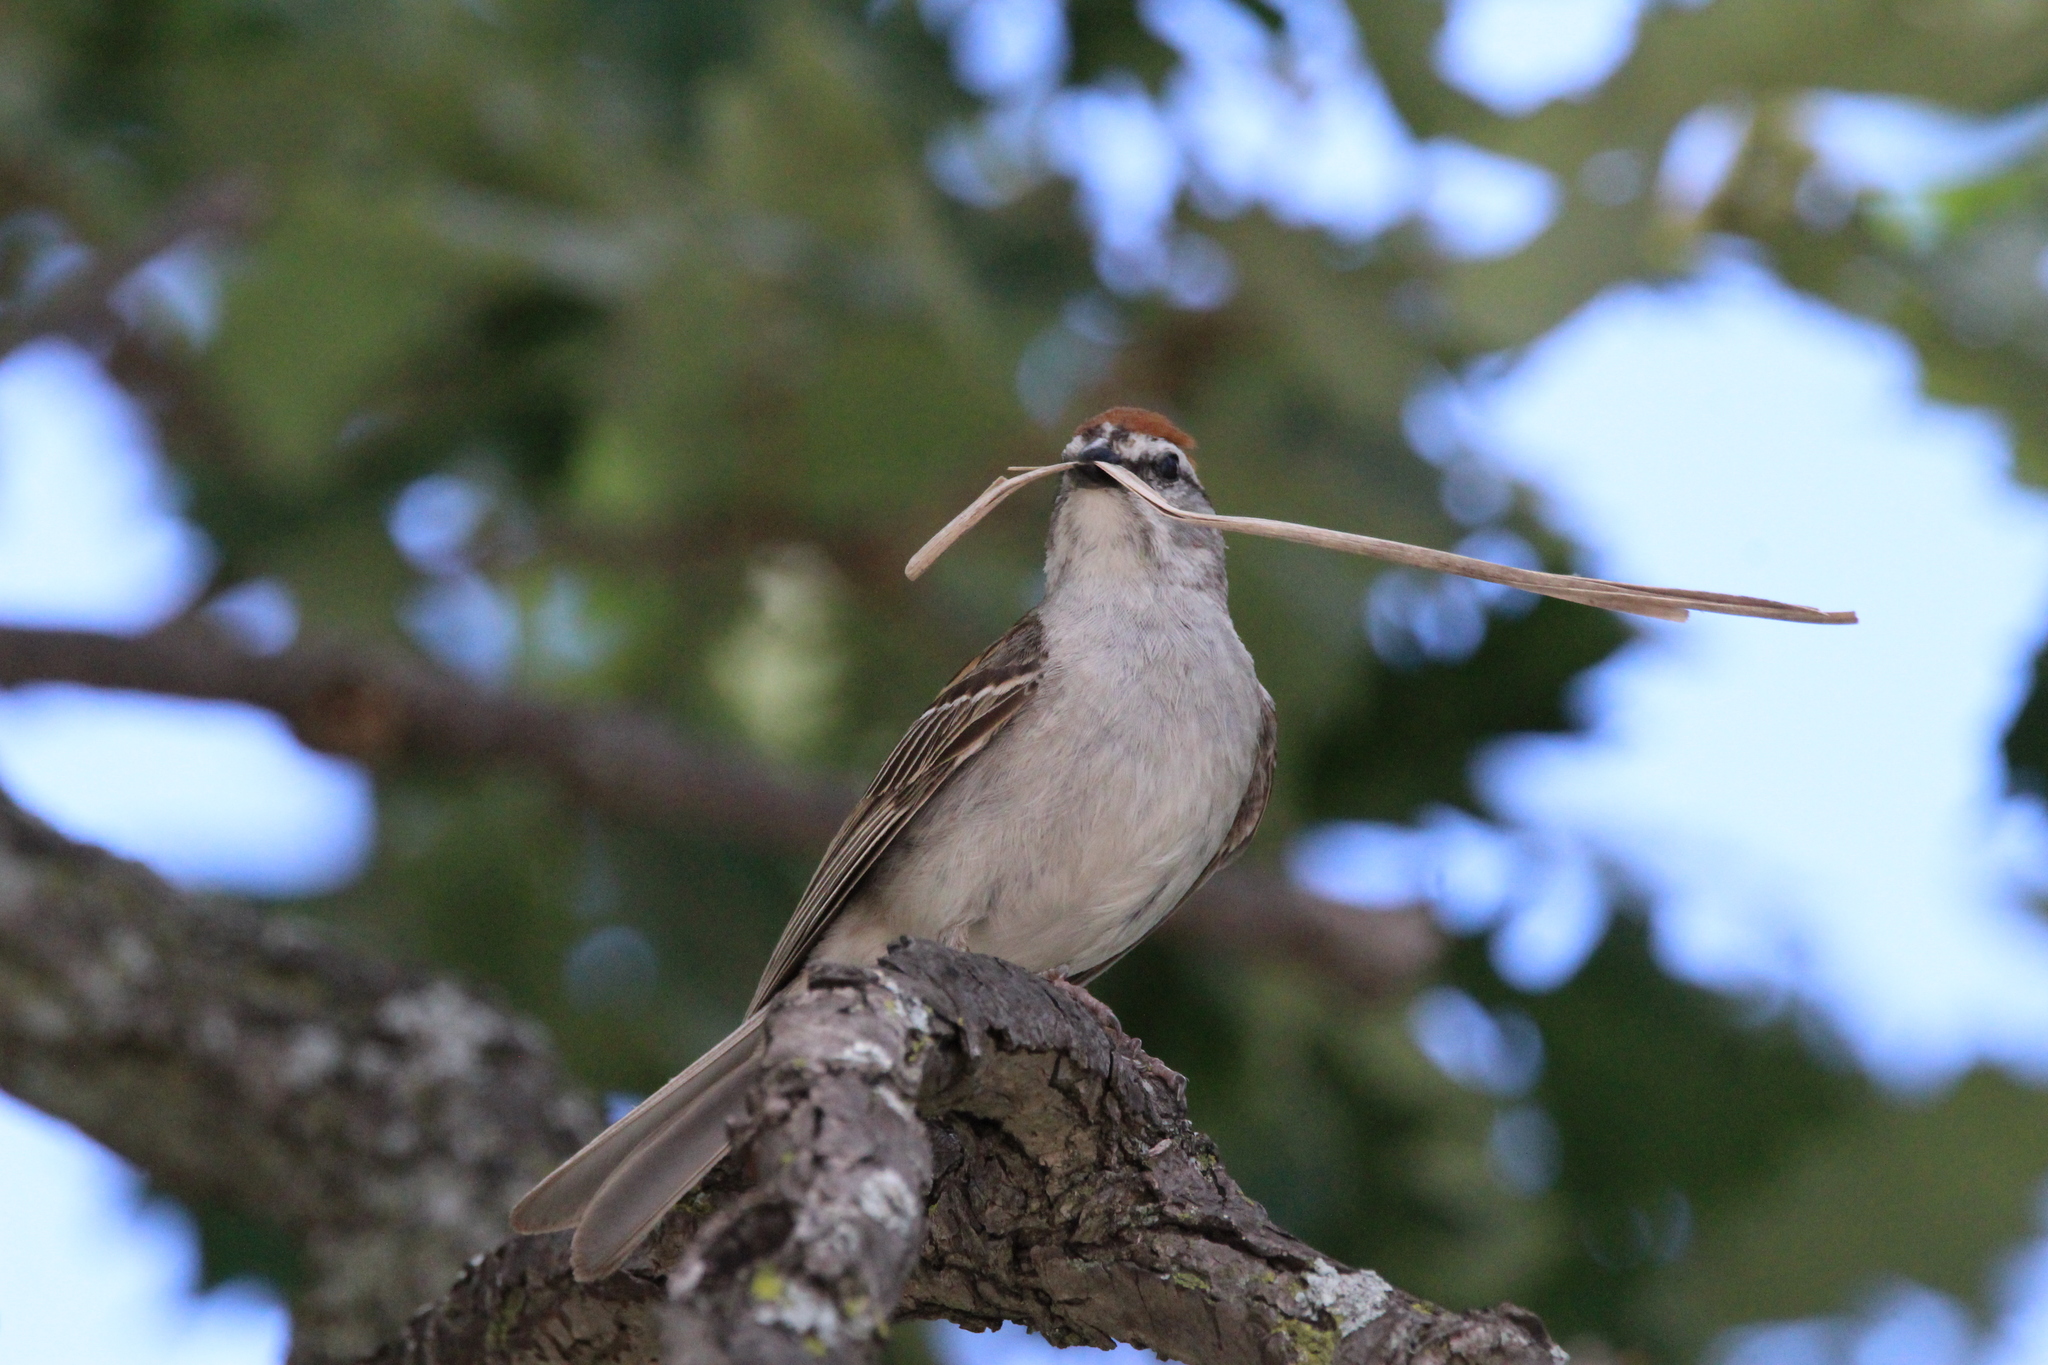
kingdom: Animalia
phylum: Chordata
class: Aves
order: Passeriformes
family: Passerellidae
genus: Spizella
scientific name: Spizella passerina
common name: Chipping sparrow
